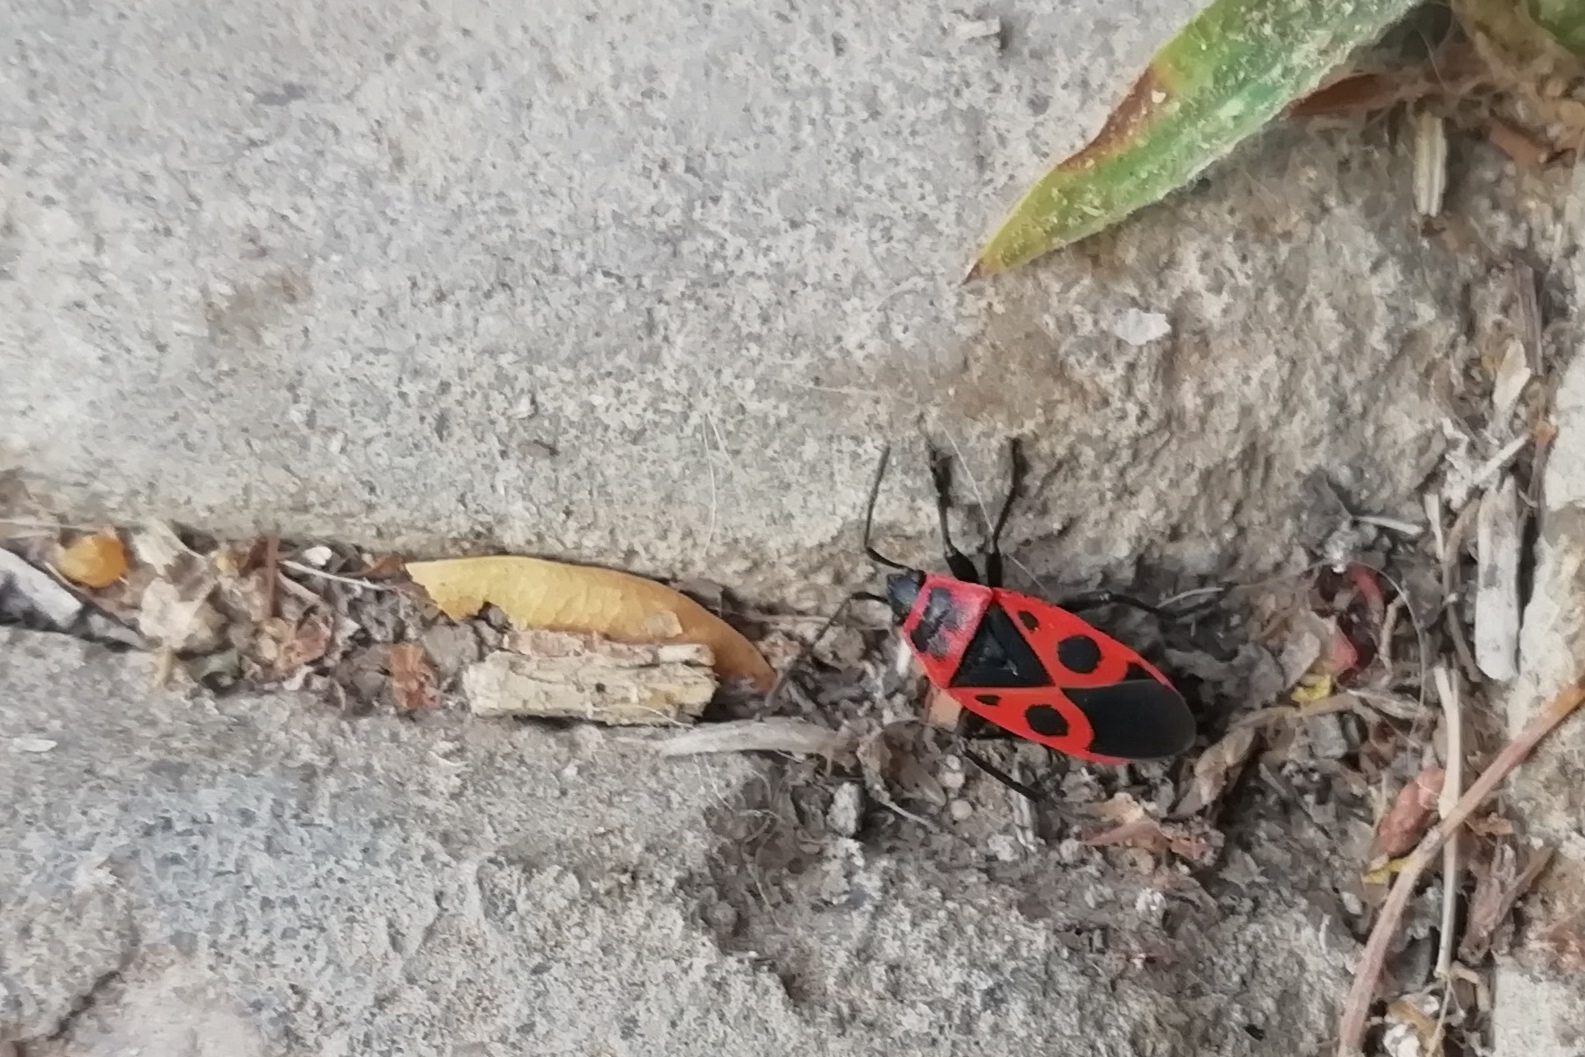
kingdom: Animalia
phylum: Arthropoda
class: Insecta
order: Hemiptera
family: Pyrrhocoridae
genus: Pyrrhocoris
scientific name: Pyrrhocoris apterus
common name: Firebug
